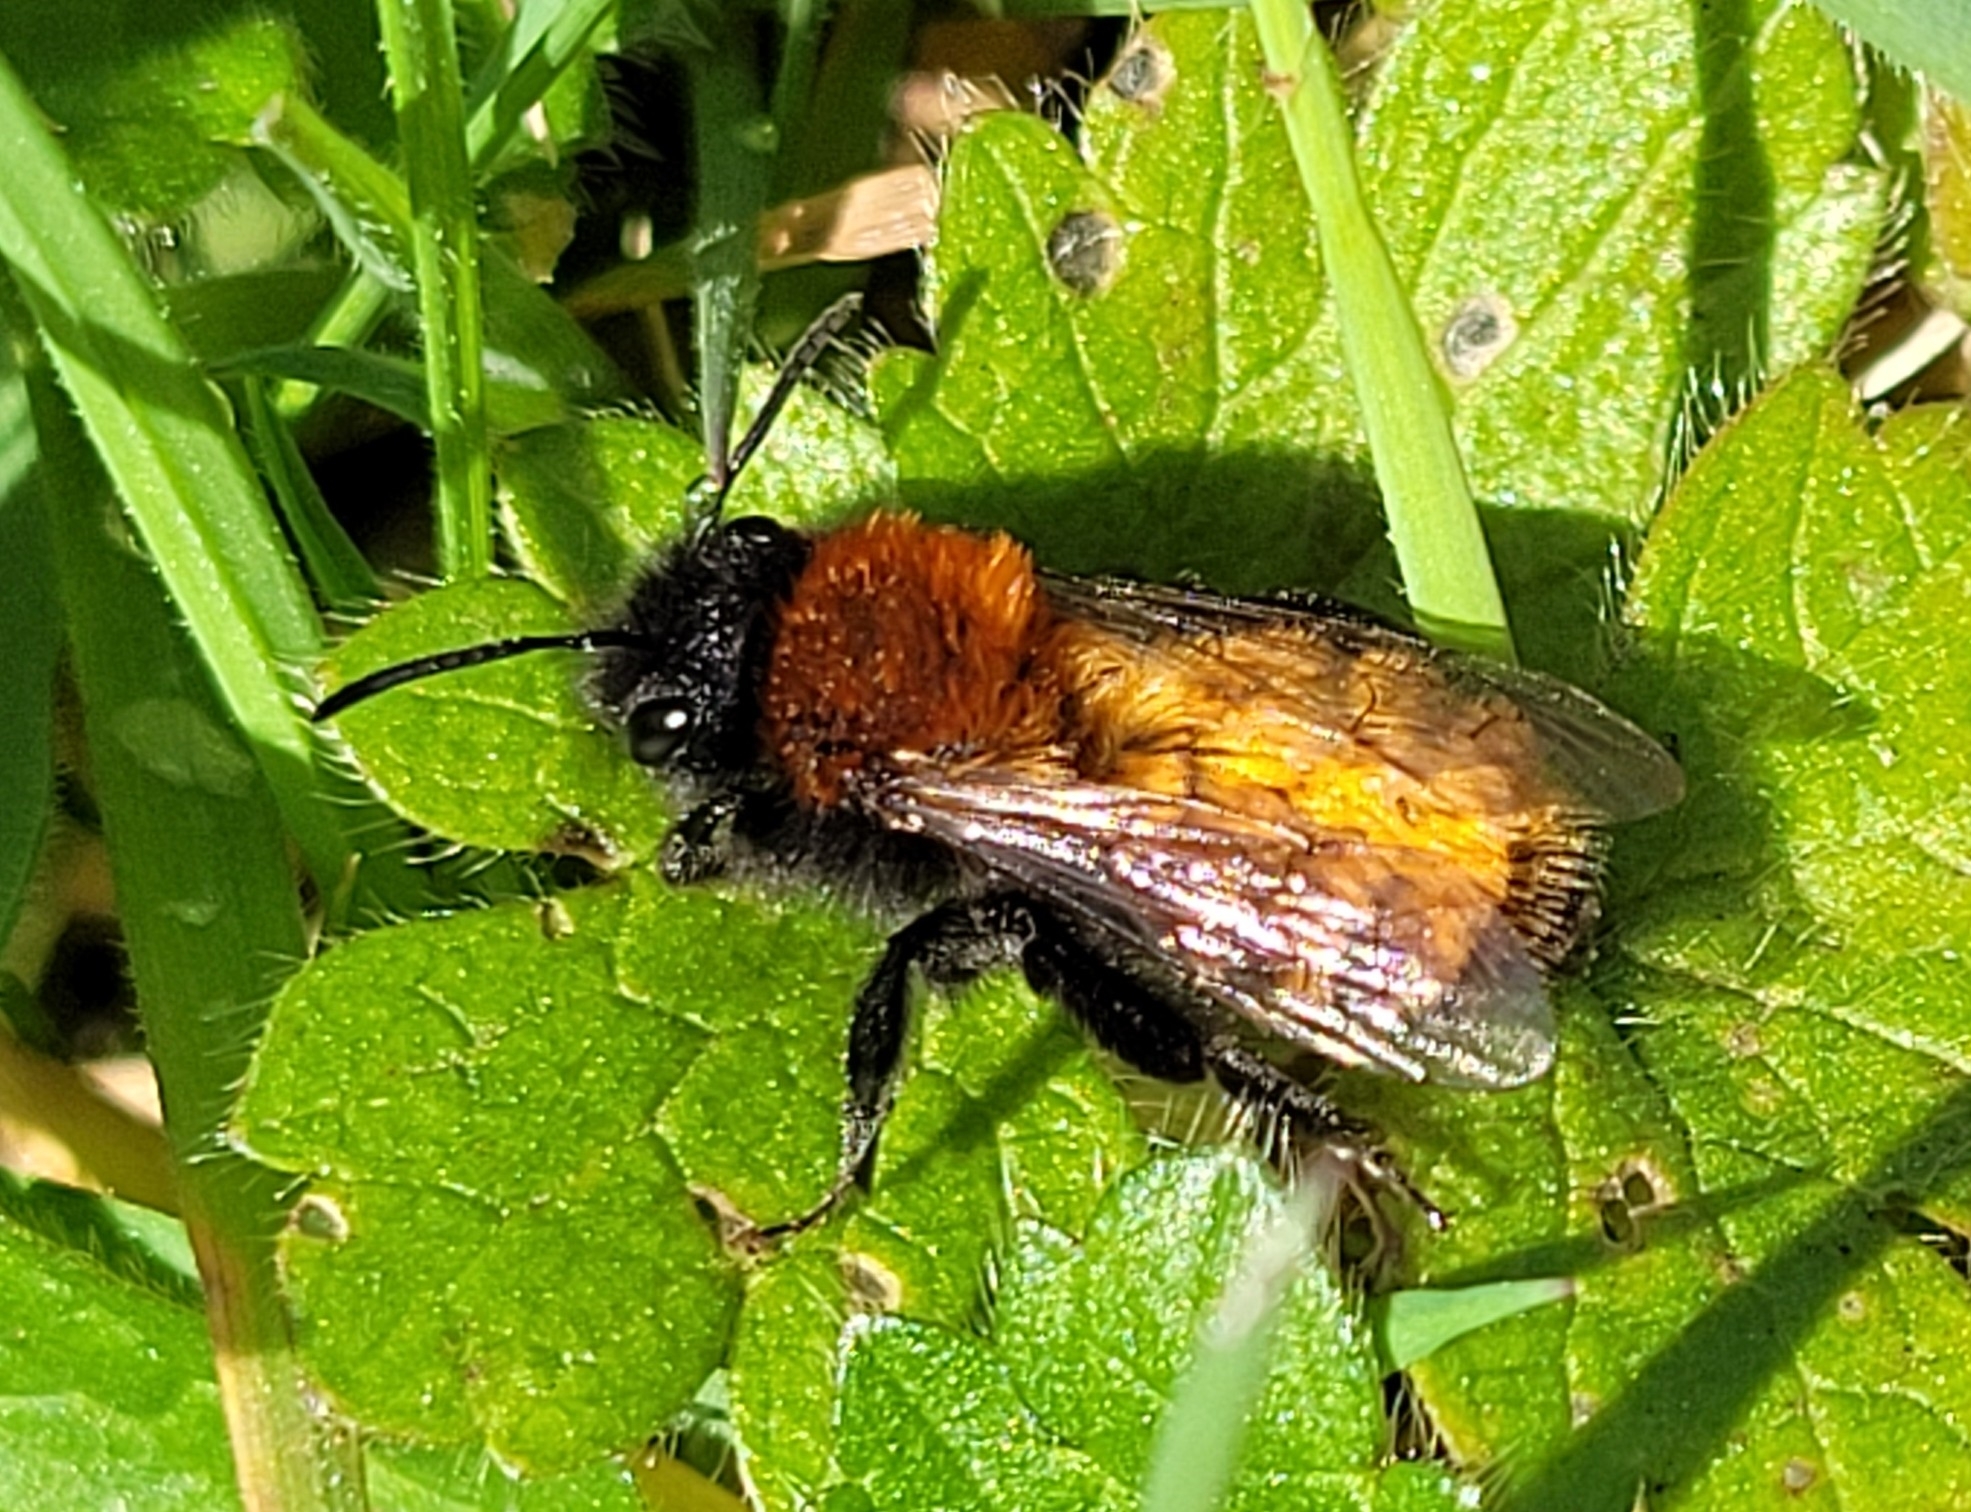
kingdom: Animalia
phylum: Arthropoda
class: Insecta
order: Hymenoptera
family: Andrenidae
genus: Andrena
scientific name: Andrena fulva
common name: Tawny mining bee
